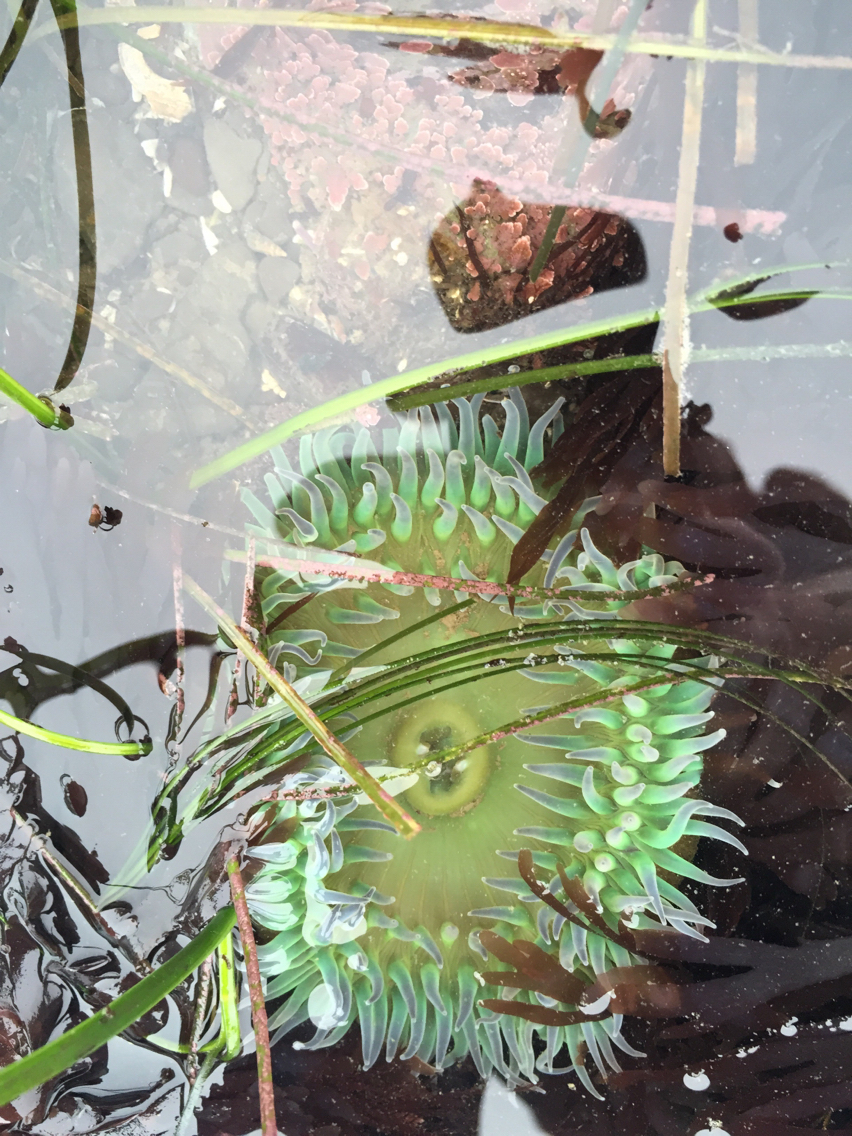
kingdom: Animalia
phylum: Cnidaria
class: Anthozoa
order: Actiniaria
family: Actiniidae
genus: Anthopleura
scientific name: Anthopleura xanthogrammica
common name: Giant green anemone
